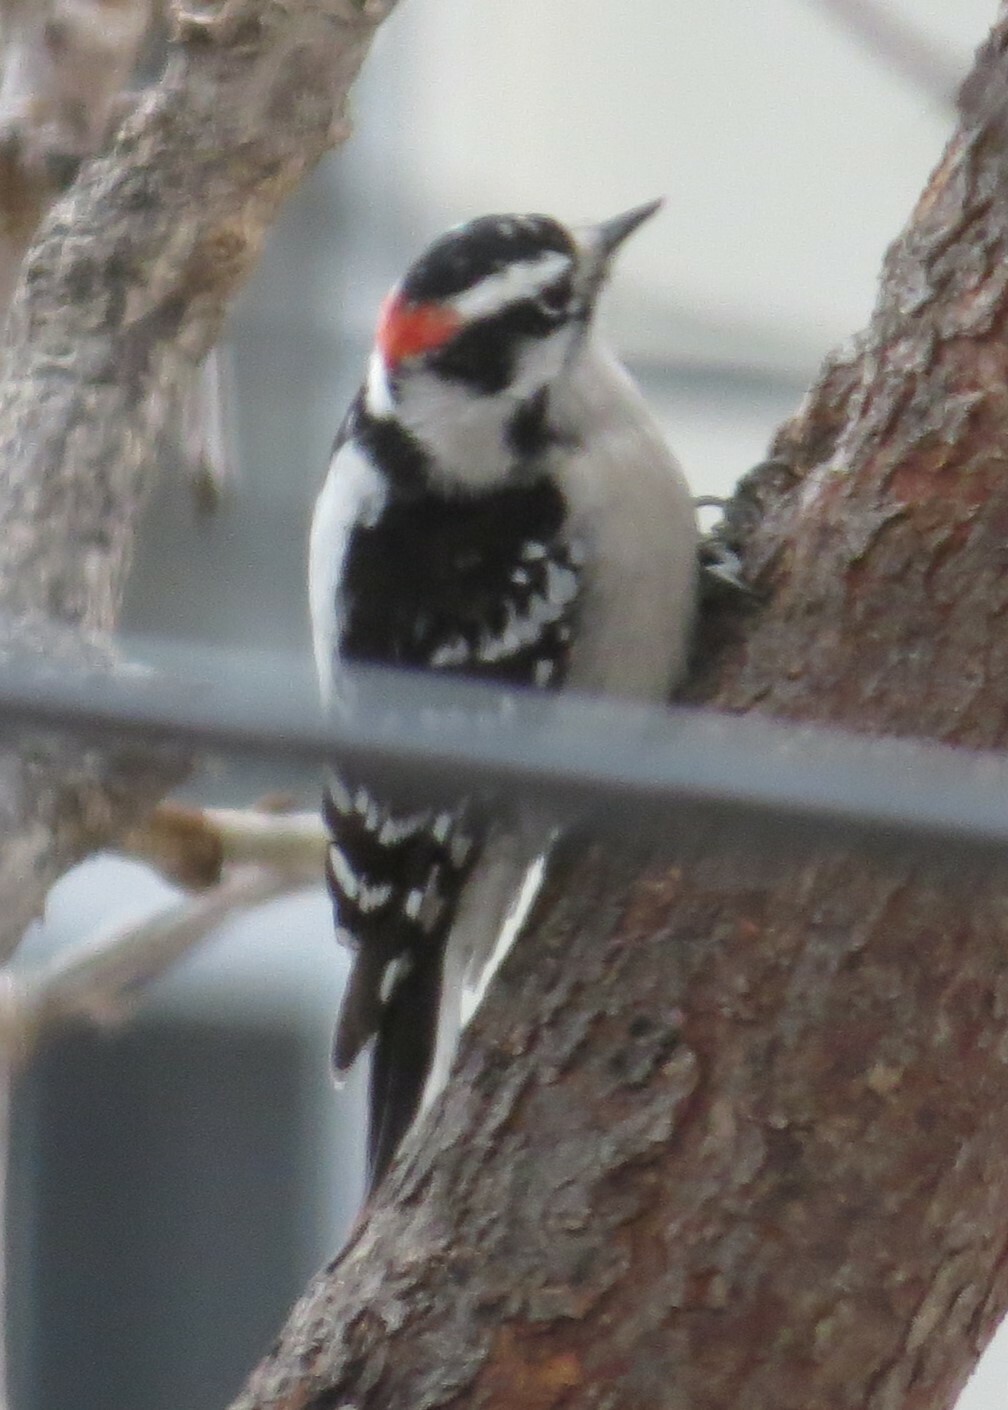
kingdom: Animalia
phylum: Chordata
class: Aves
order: Piciformes
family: Picidae
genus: Dryobates
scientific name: Dryobates pubescens
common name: Downy woodpecker
